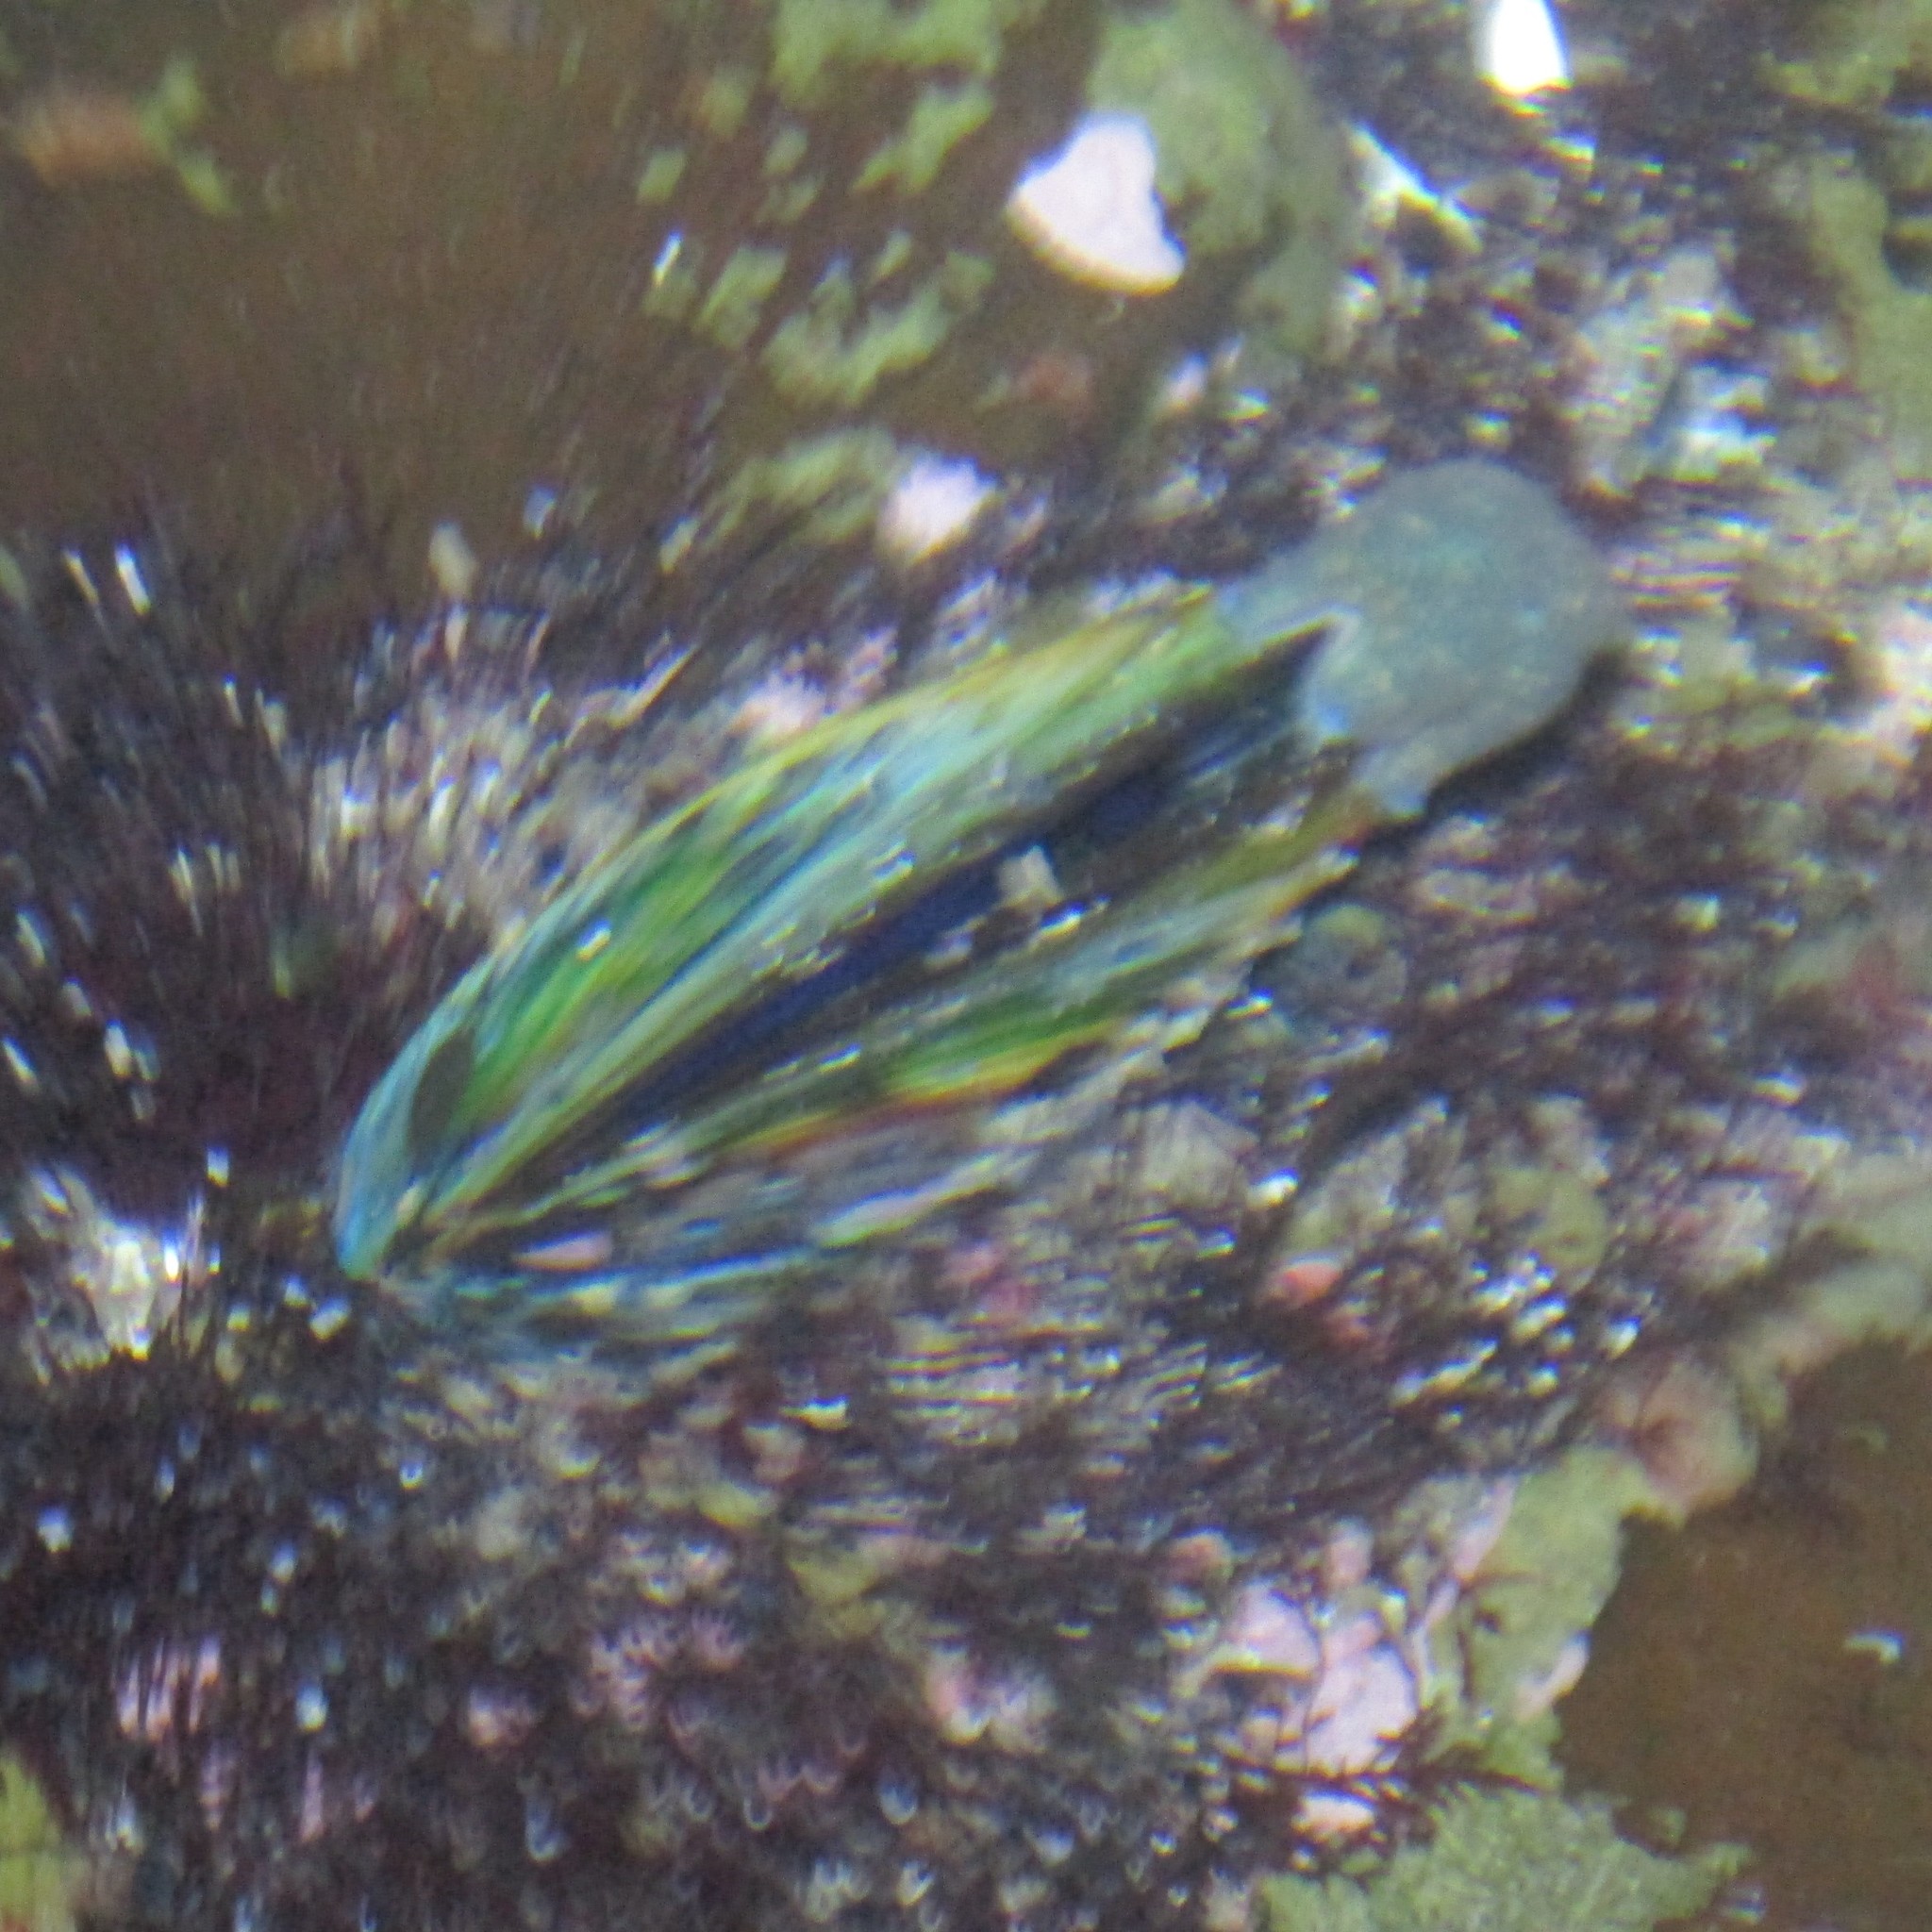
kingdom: Animalia
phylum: Mollusca
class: Bivalvia
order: Mytilida
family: Mytilidae
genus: Perna
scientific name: Perna canaliculus
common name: New zealand greenshelltm
